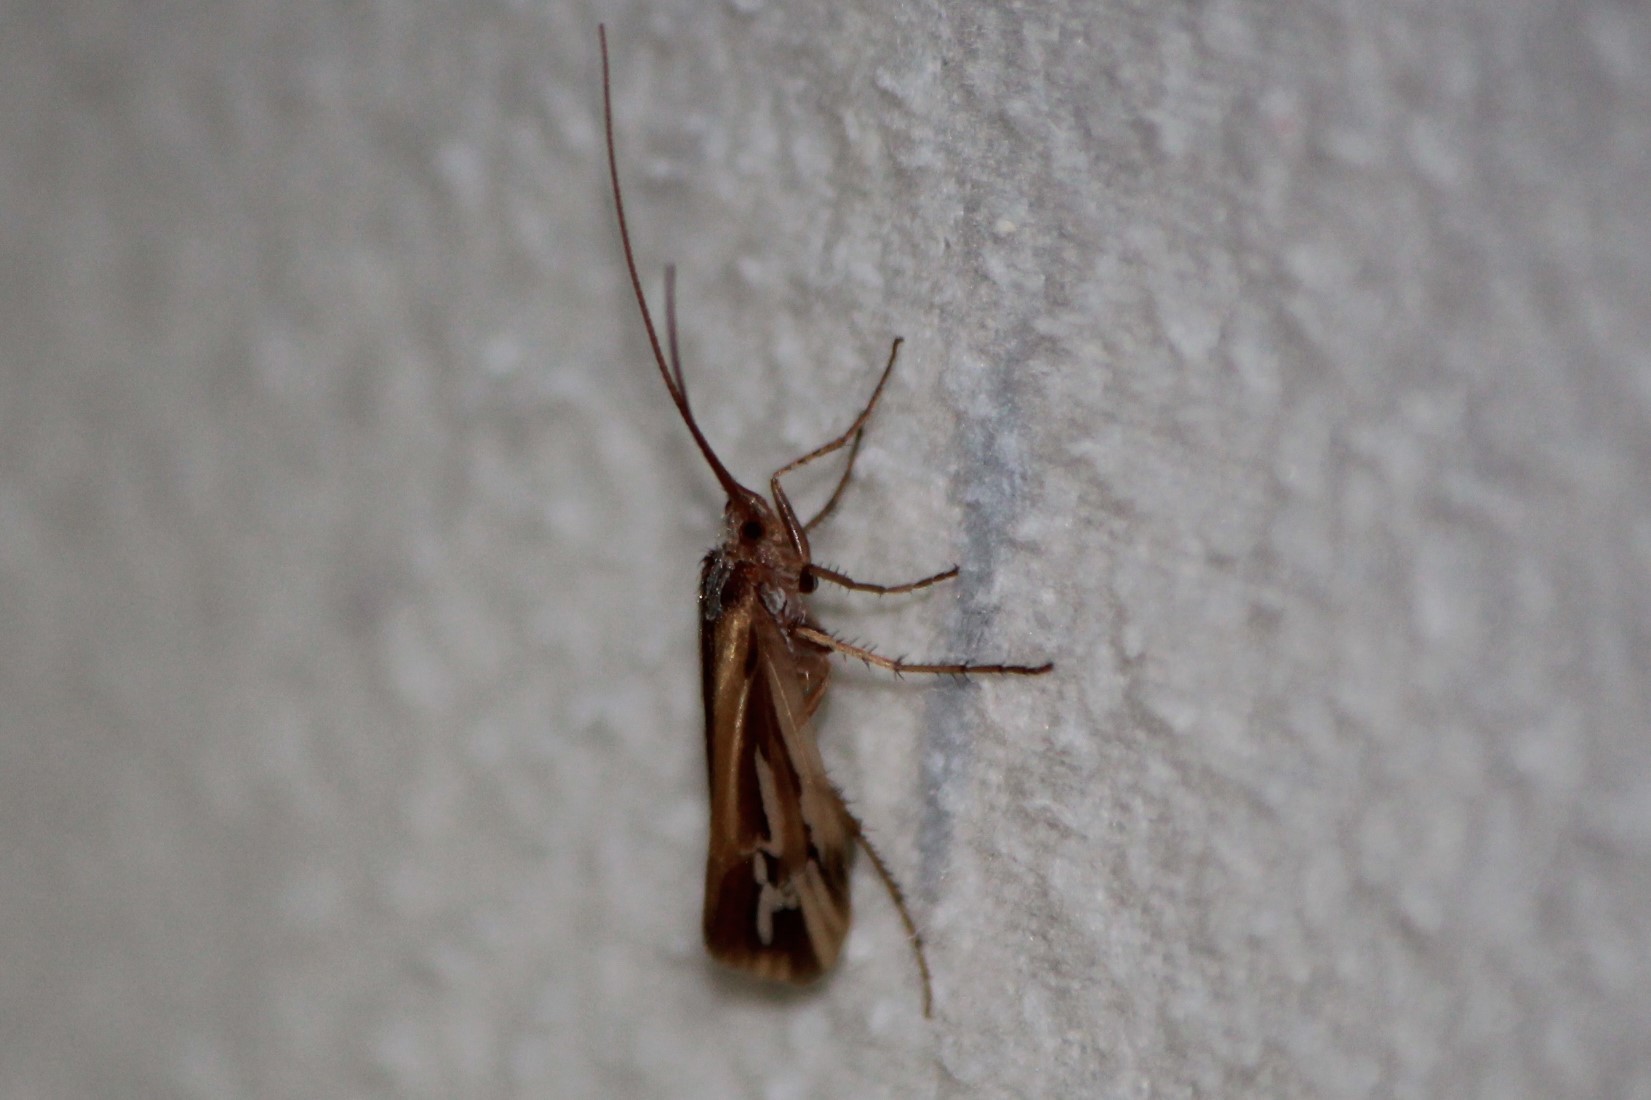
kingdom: Animalia
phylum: Arthropoda
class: Insecta
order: Trichoptera
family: Limnephilidae
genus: Limnephilus
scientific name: Limnephilus ornatus
